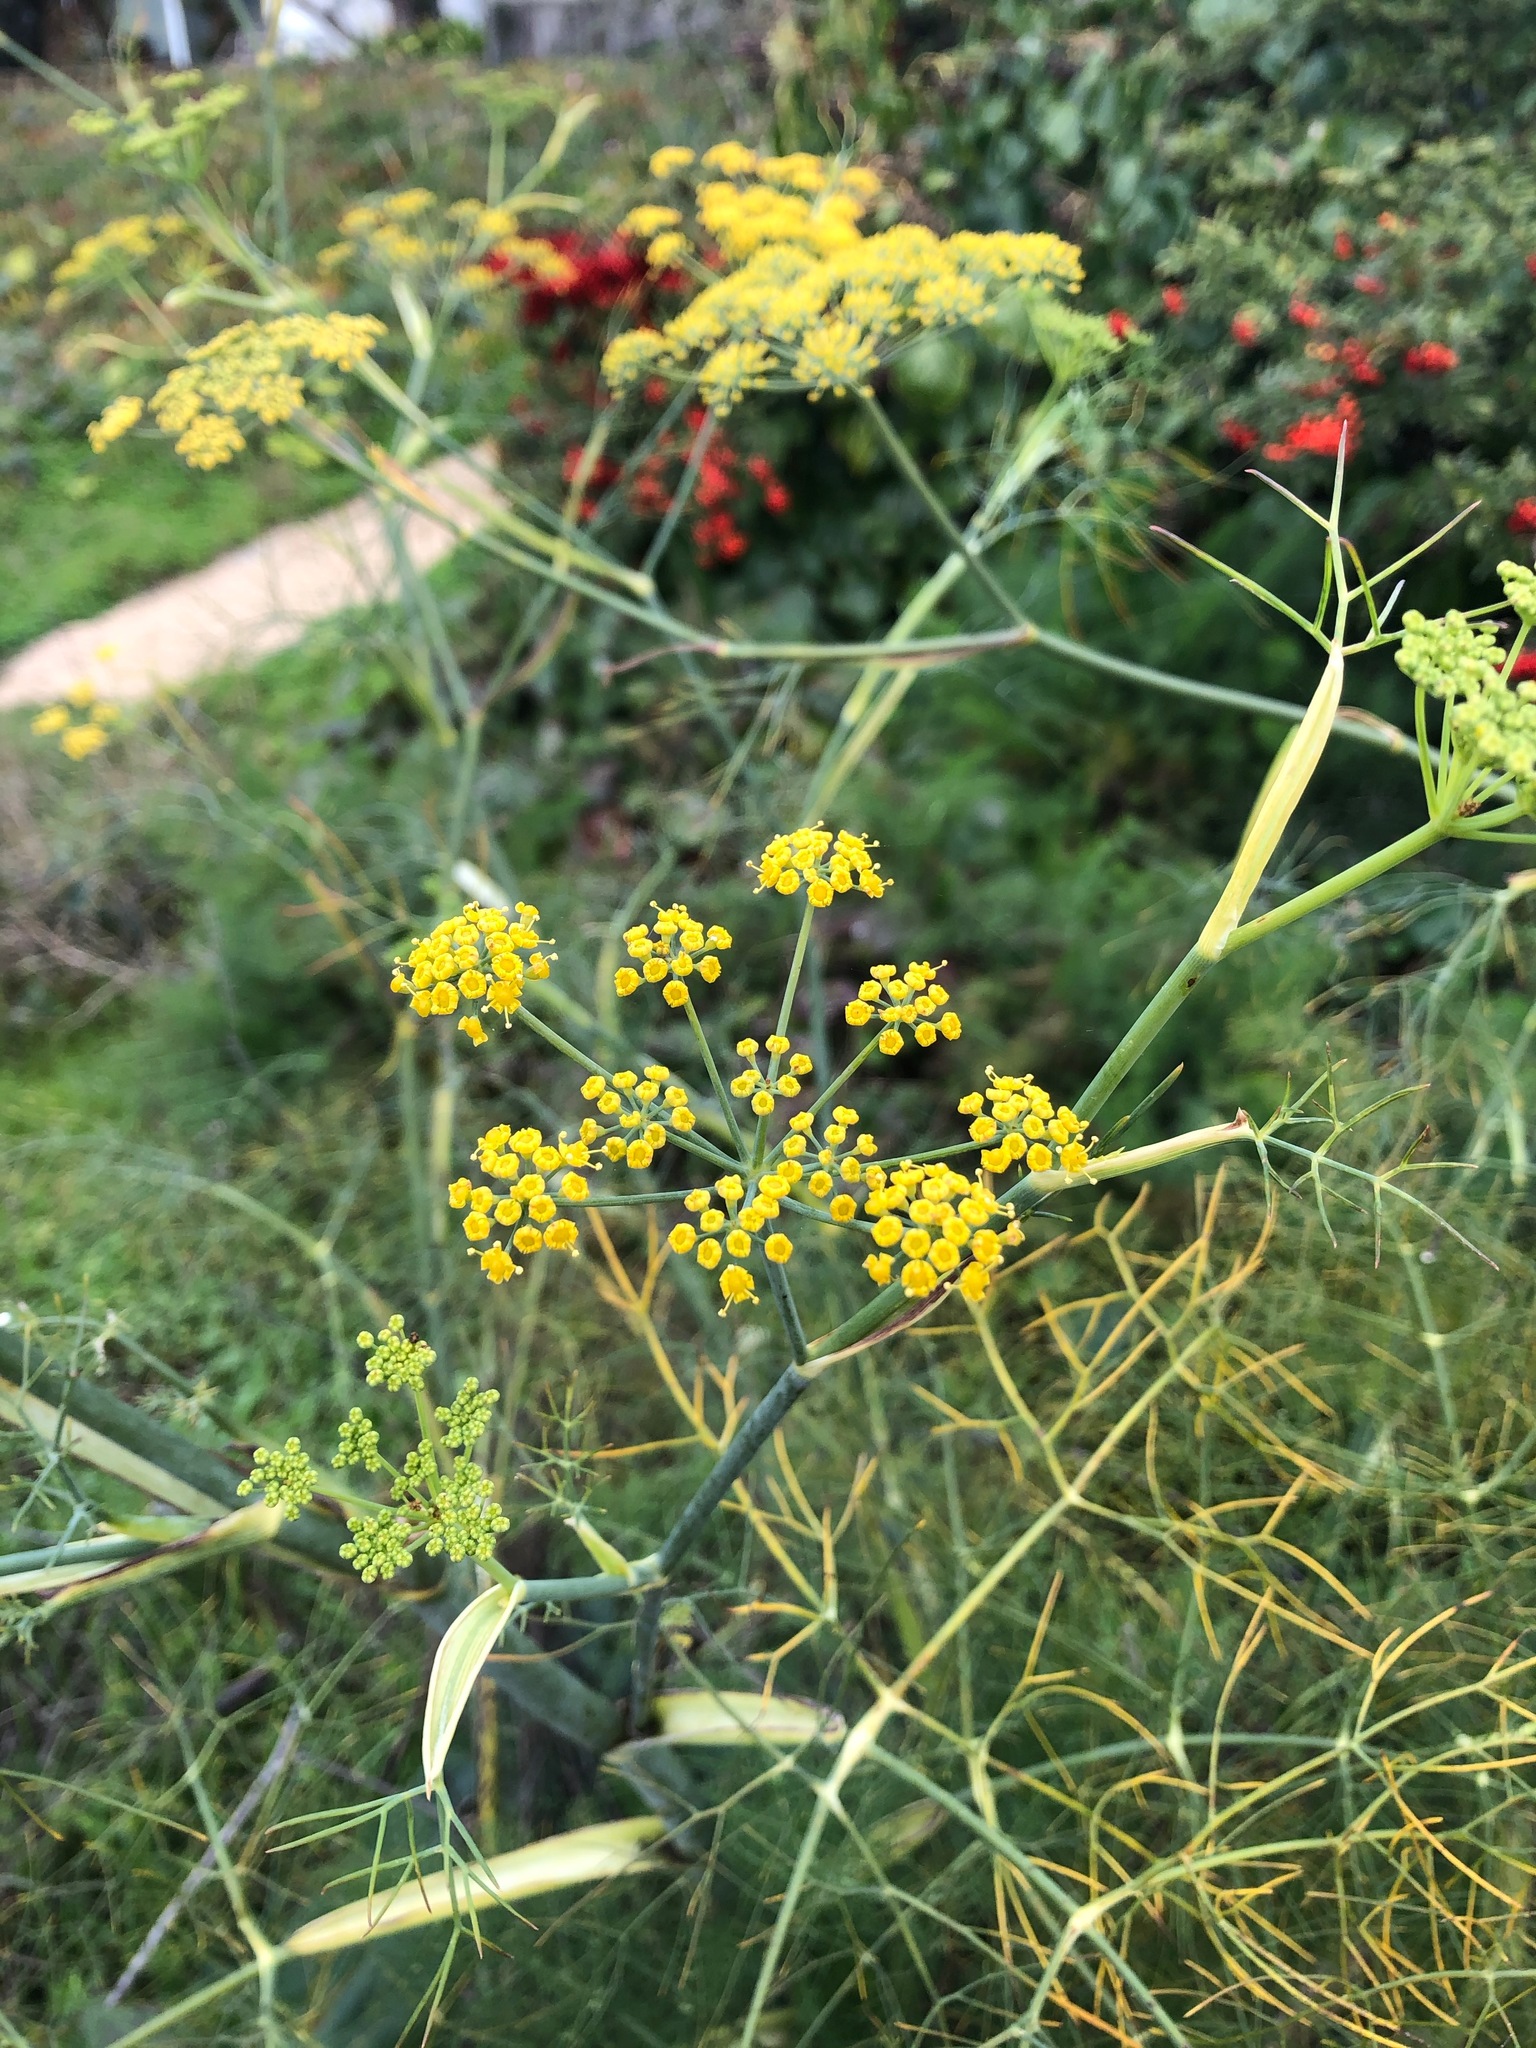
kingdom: Plantae
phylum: Tracheophyta
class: Magnoliopsida
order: Apiales
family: Apiaceae
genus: Foeniculum
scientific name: Foeniculum vulgare
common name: Fennel
